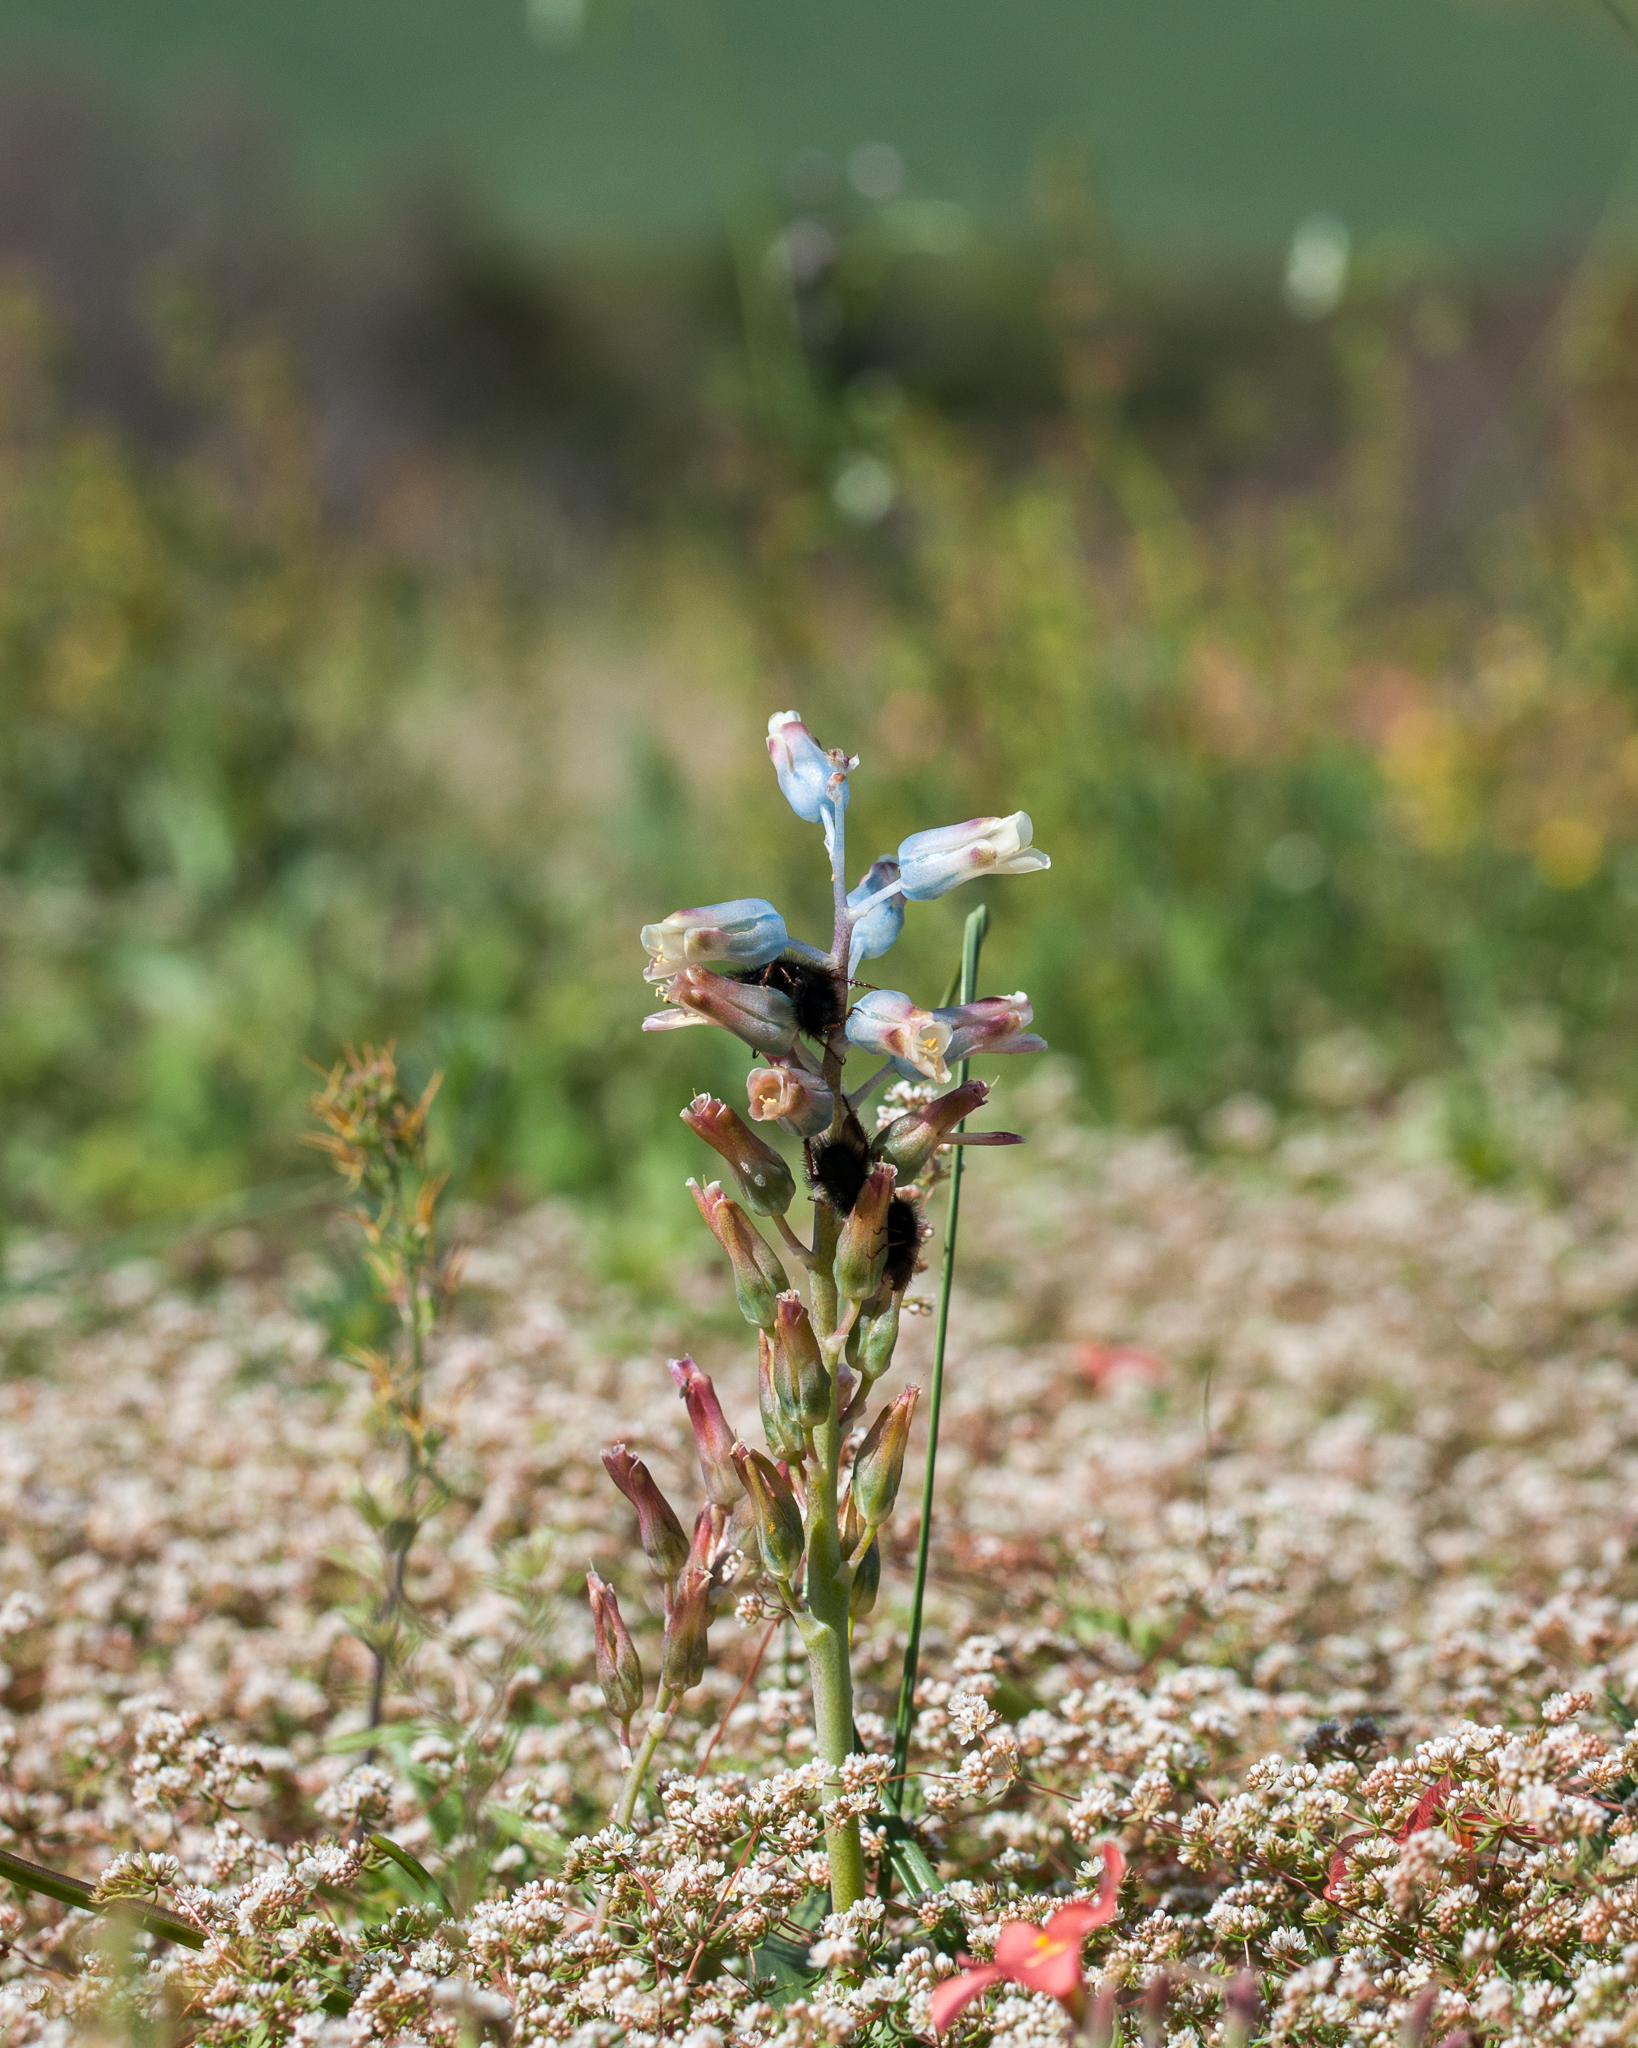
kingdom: Plantae
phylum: Tracheophyta
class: Liliopsida
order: Asparagales
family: Asparagaceae
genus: Lachenalia
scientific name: Lachenalia unifolia
